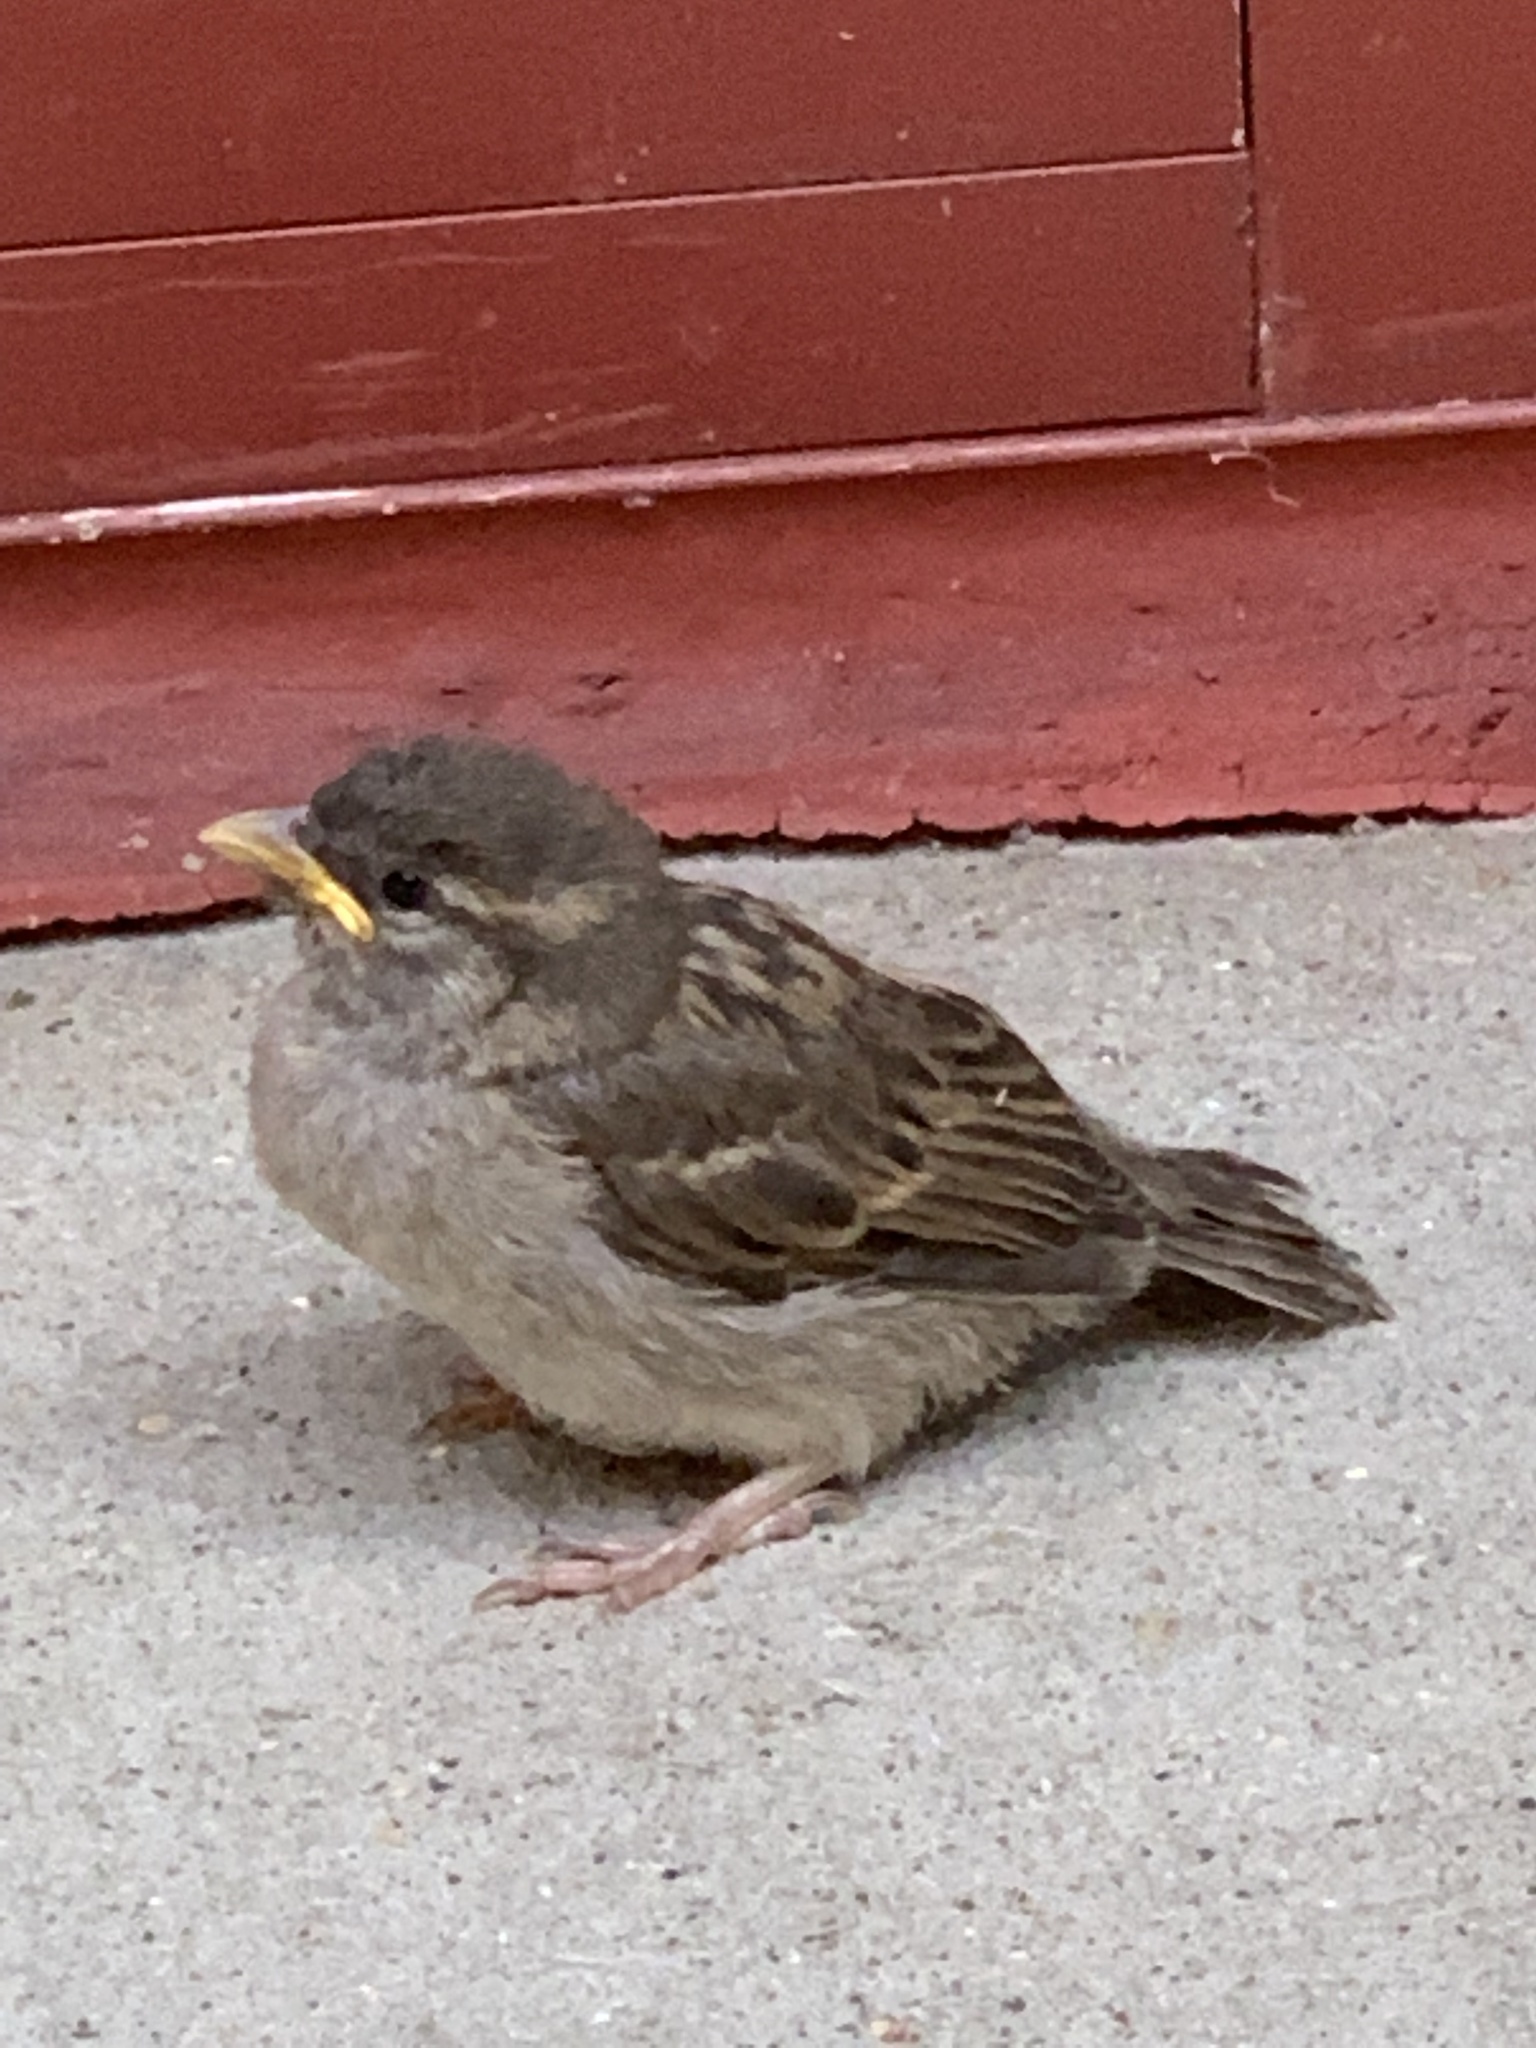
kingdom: Animalia
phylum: Chordata
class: Aves
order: Passeriformes
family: Passeridae
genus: Passer
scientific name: Passer domesticus
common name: House sparrow
